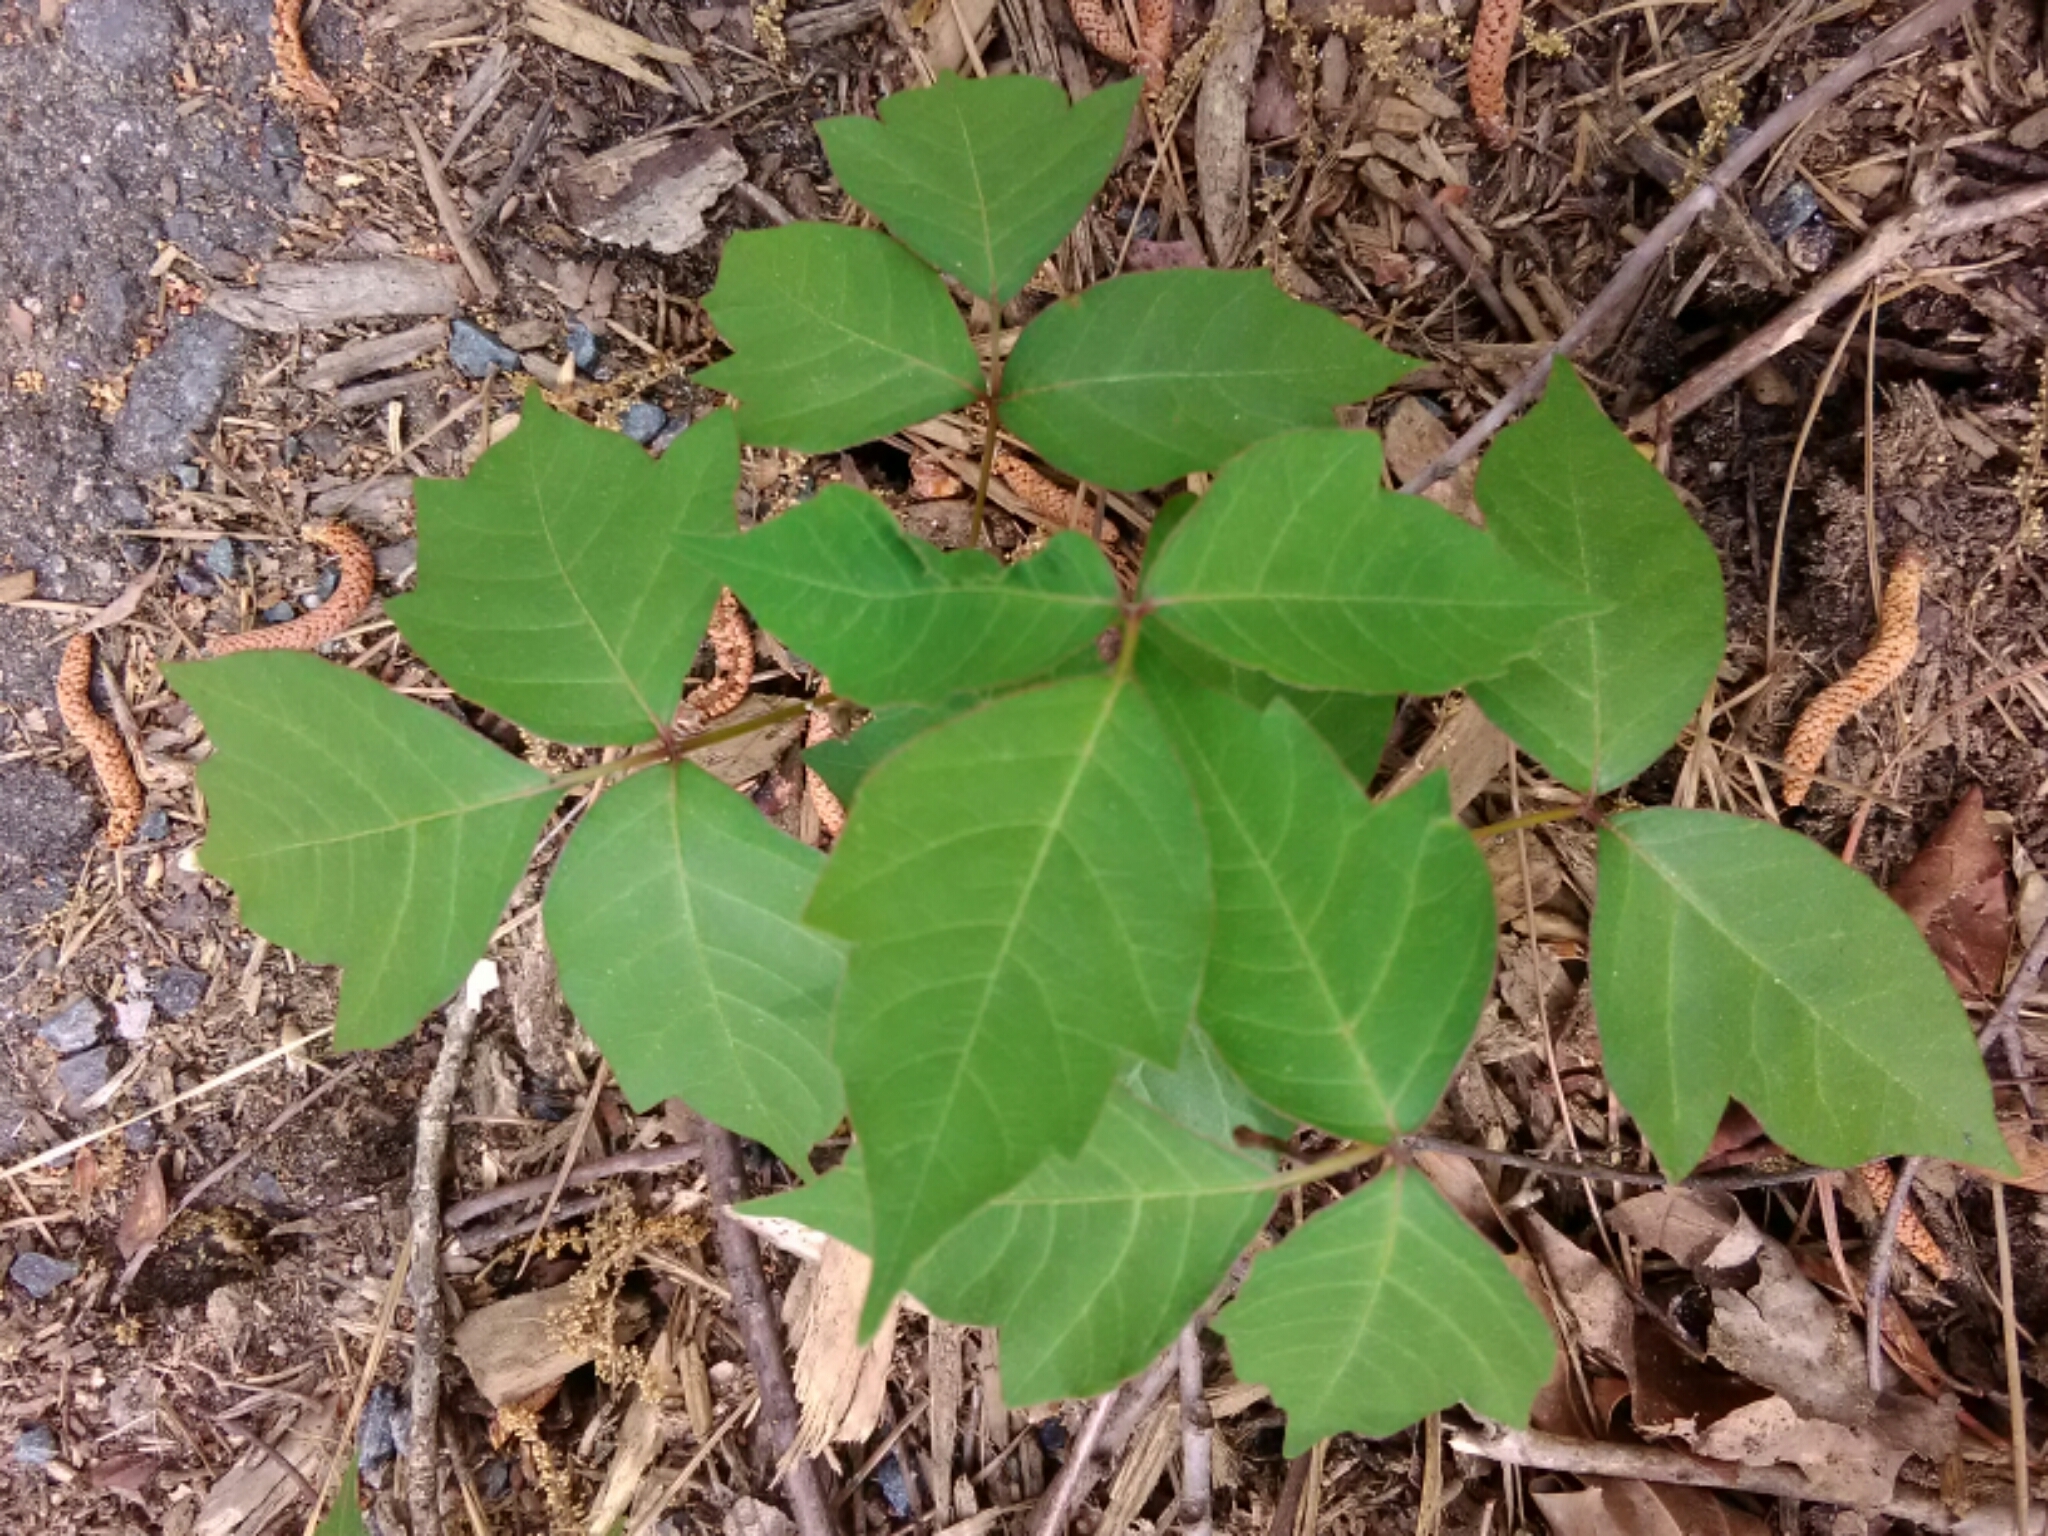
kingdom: Plantae
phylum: Tracheophyta
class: Magnoliopsida
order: Sapindales
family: Anacardiaceae
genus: Toxicodendron
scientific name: Toxicodendron radicans
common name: Poison ivy
